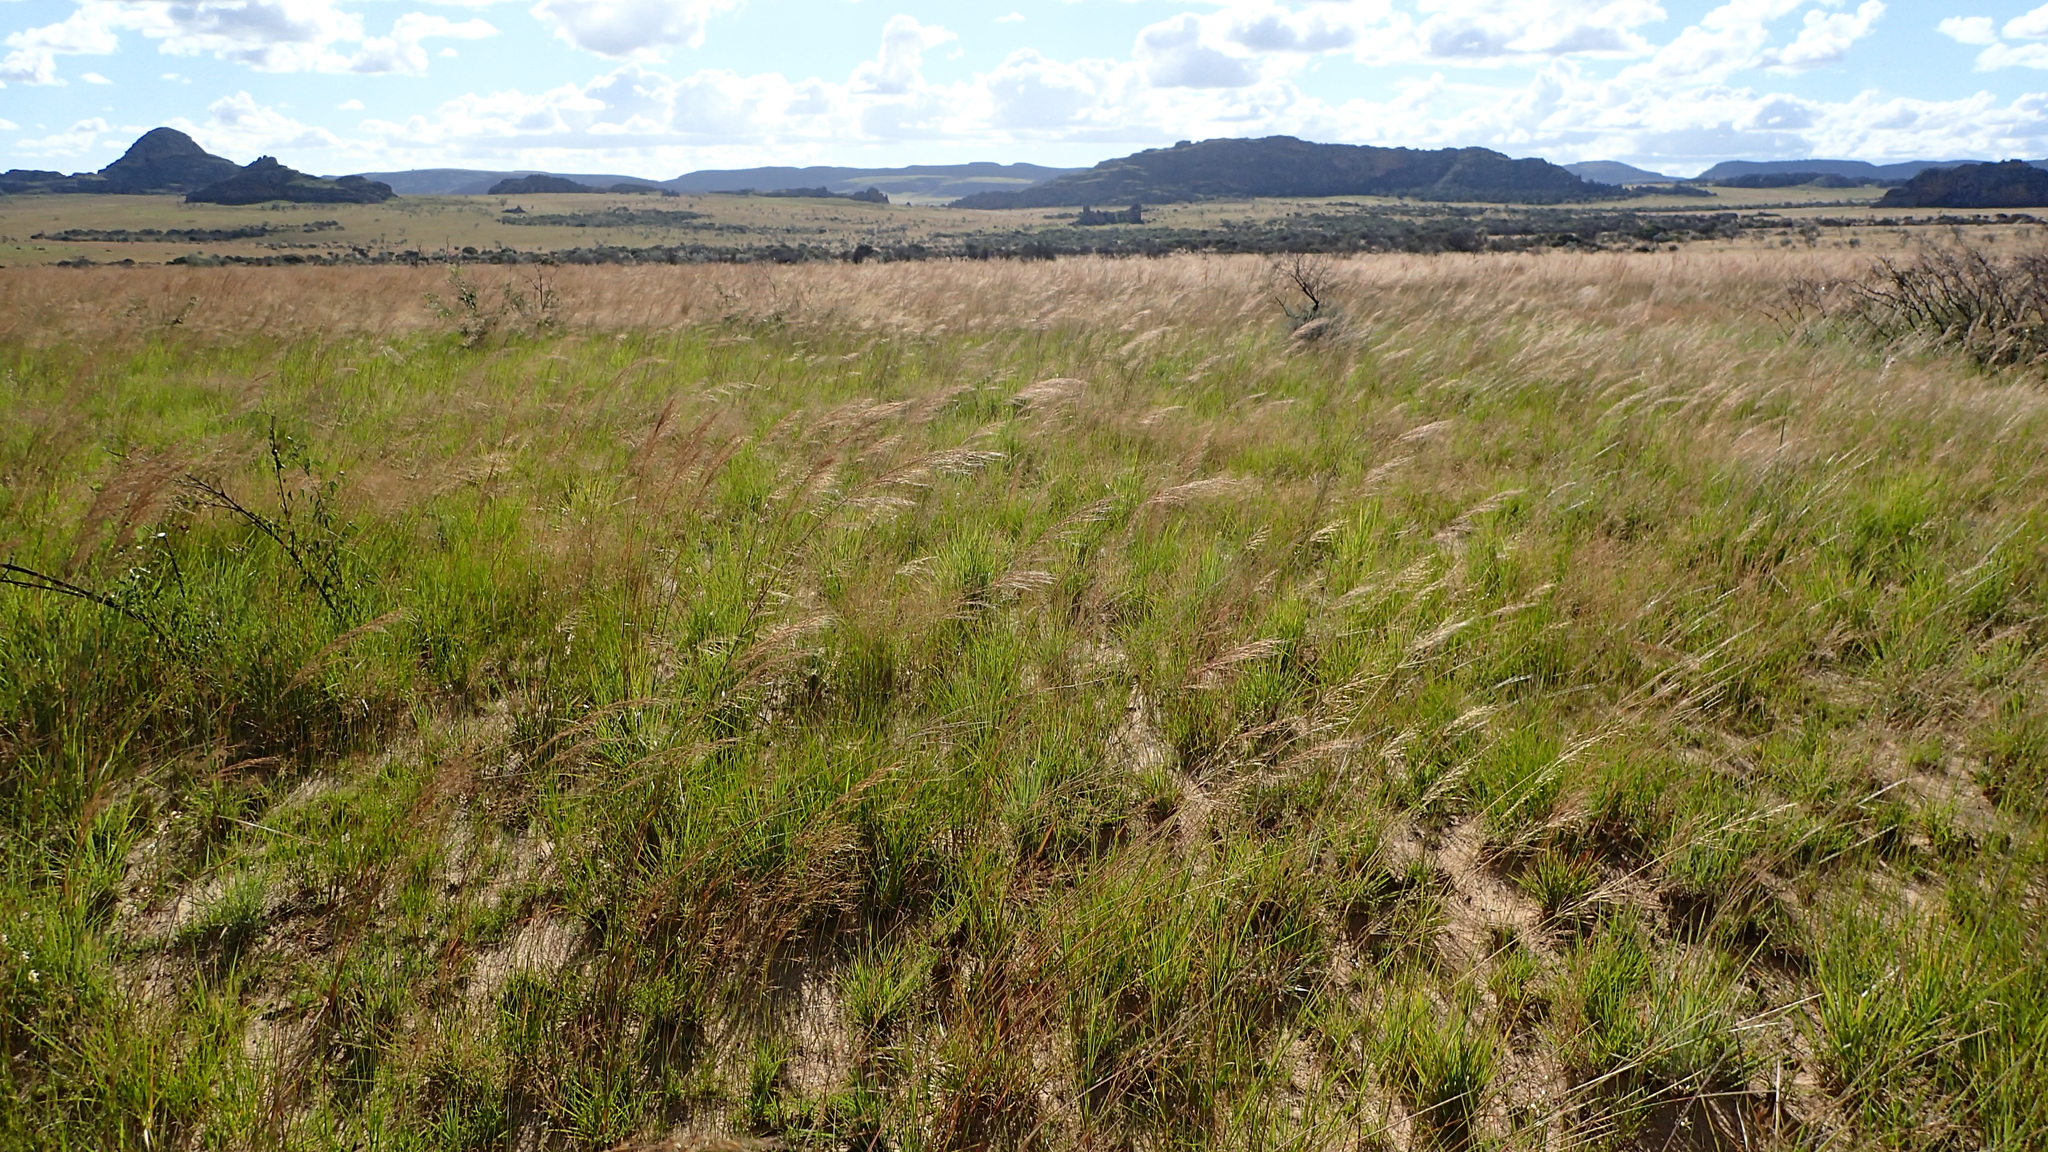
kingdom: Plantae
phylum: Tracheophyta
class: Liliopsida
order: Poales
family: Poaceae
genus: Loudetia
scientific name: Loudetia simplex
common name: Common russet grass
